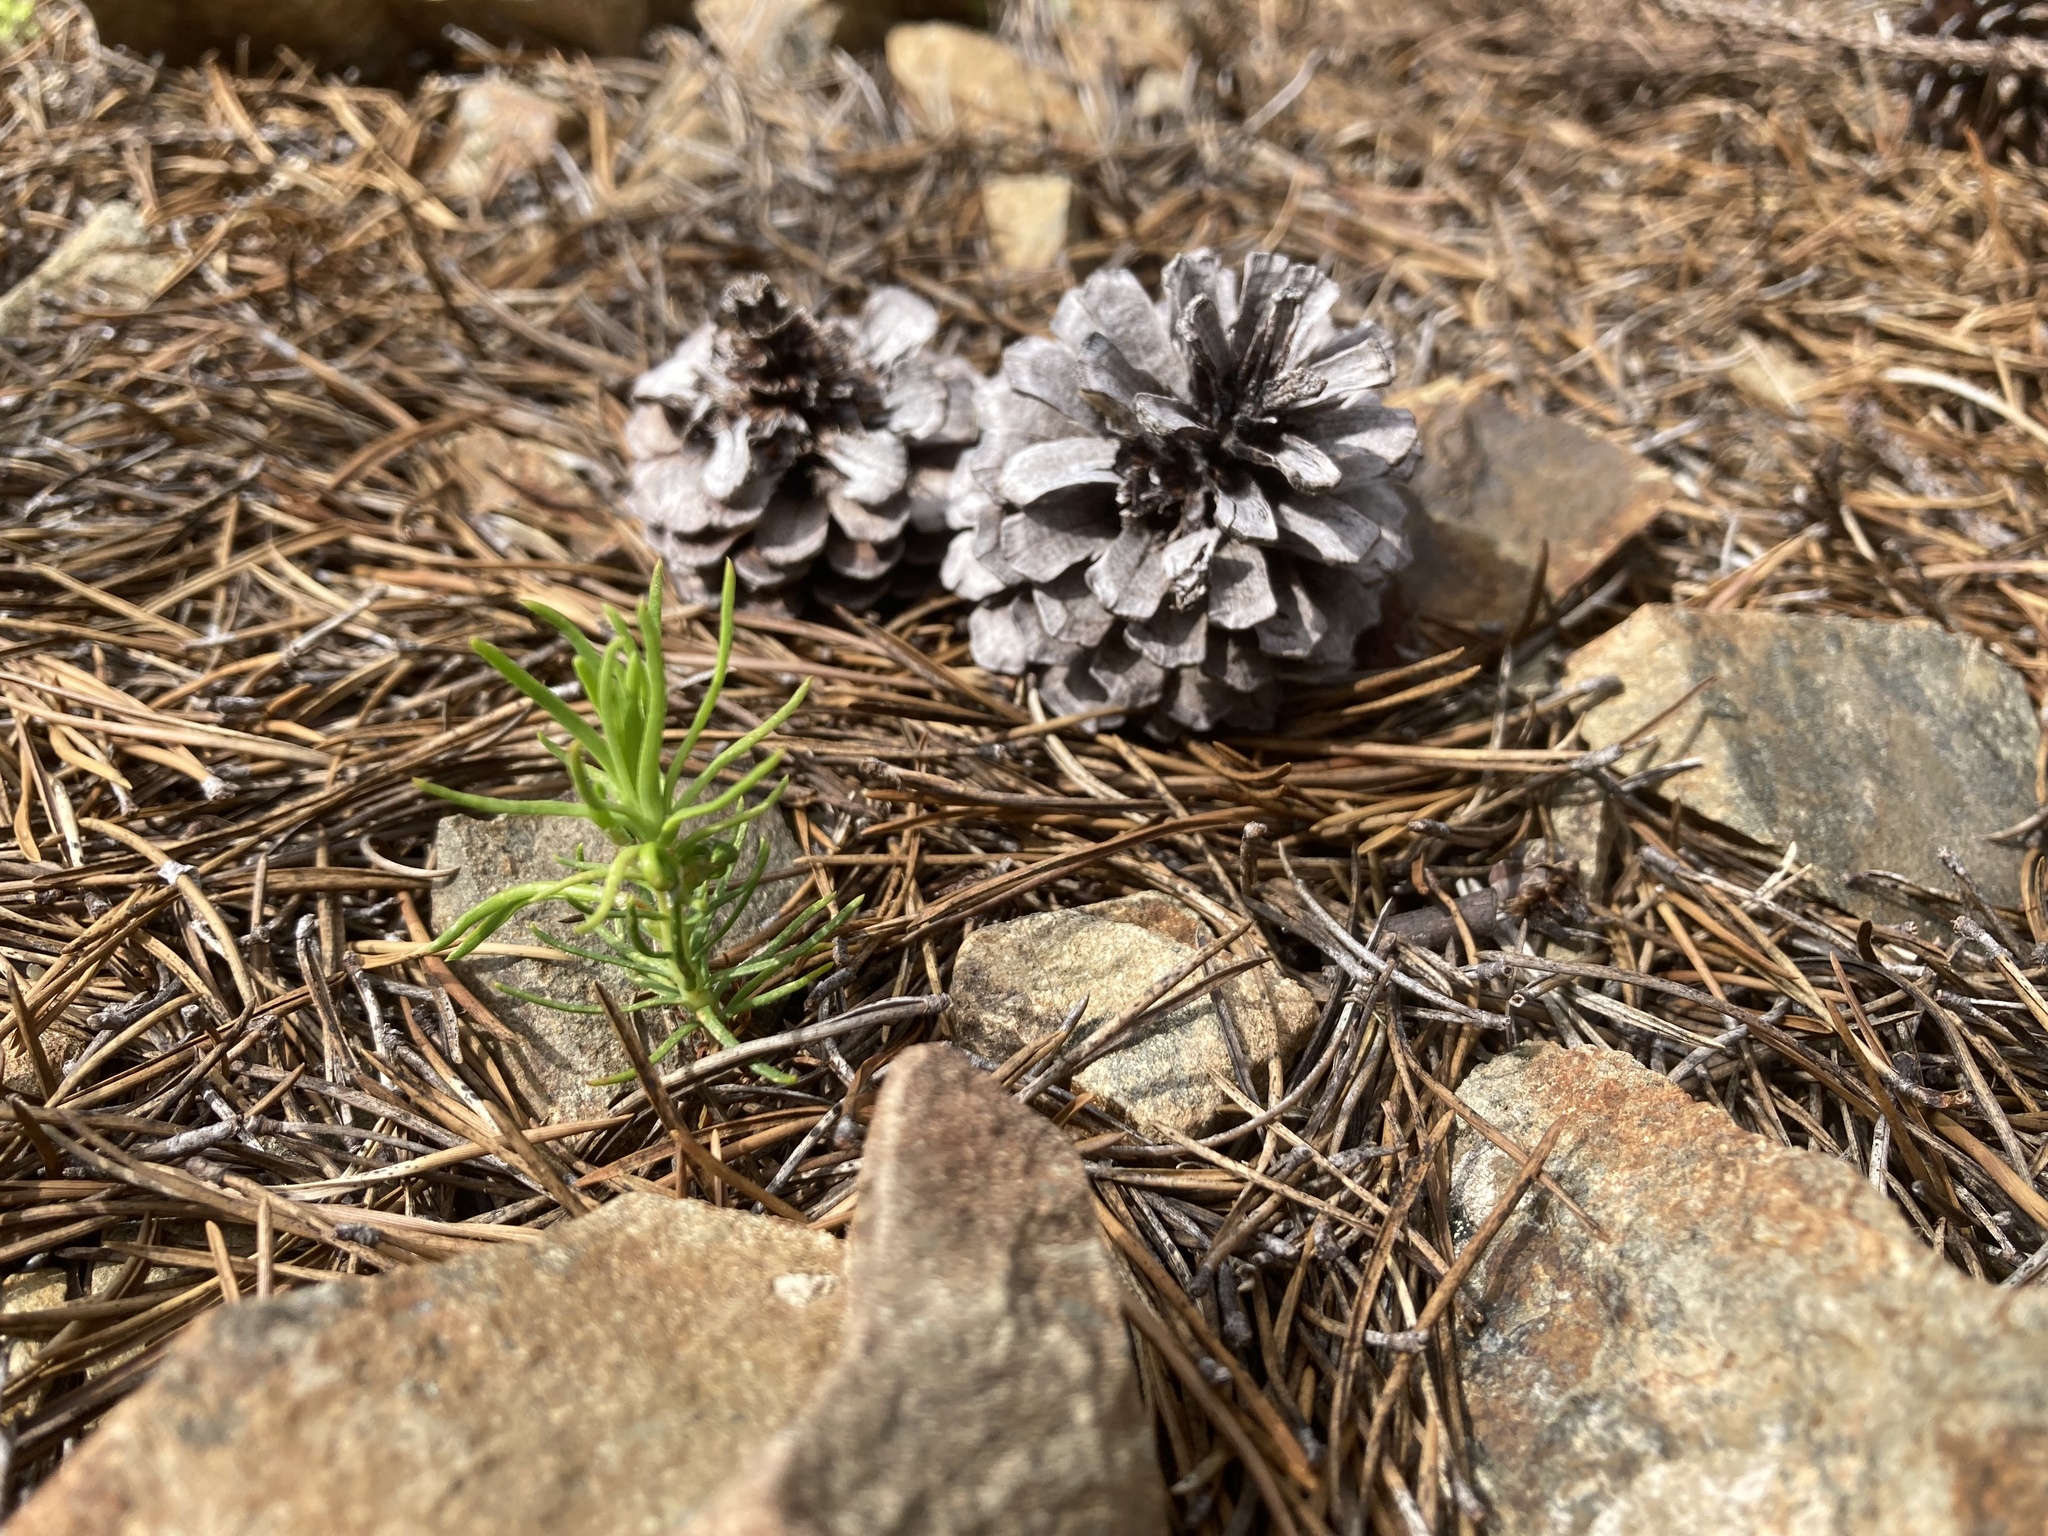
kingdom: Plantae
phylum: Tracheophyta
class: Pinopsida
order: Pinales
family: Pinaceae
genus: Pinus
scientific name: Pinus contorta
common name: Lodgepole pine
